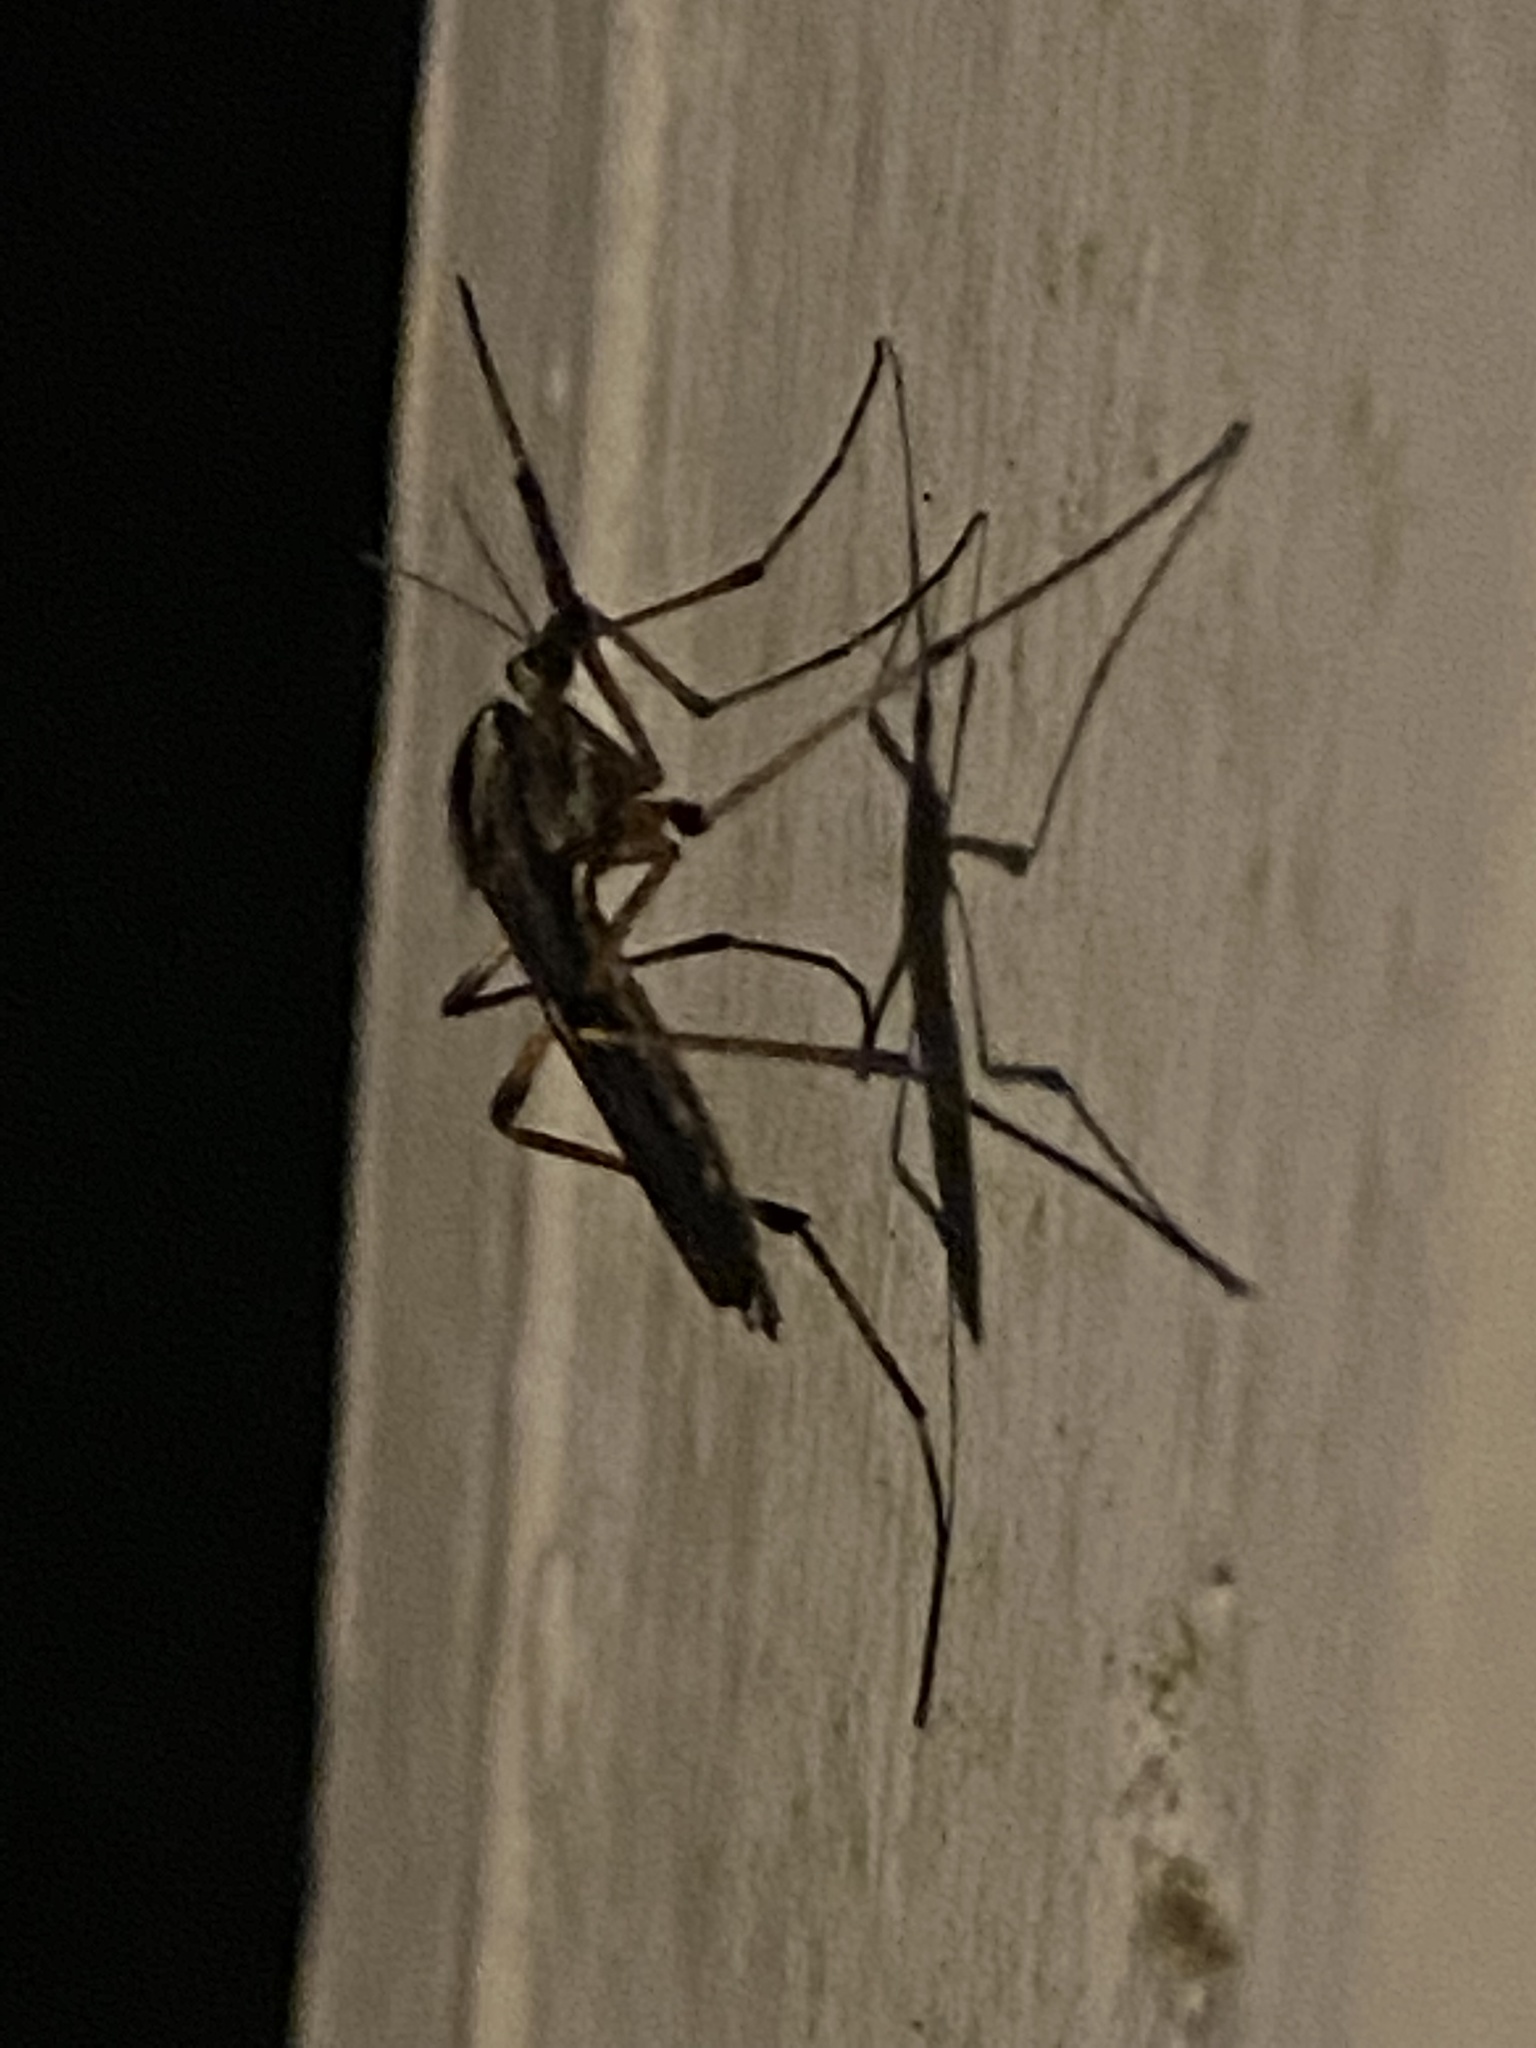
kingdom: Animalia
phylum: Arthropoda
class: Insecta
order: Diptera
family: Culicidae
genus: Psorophora
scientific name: Psorophora howardii
